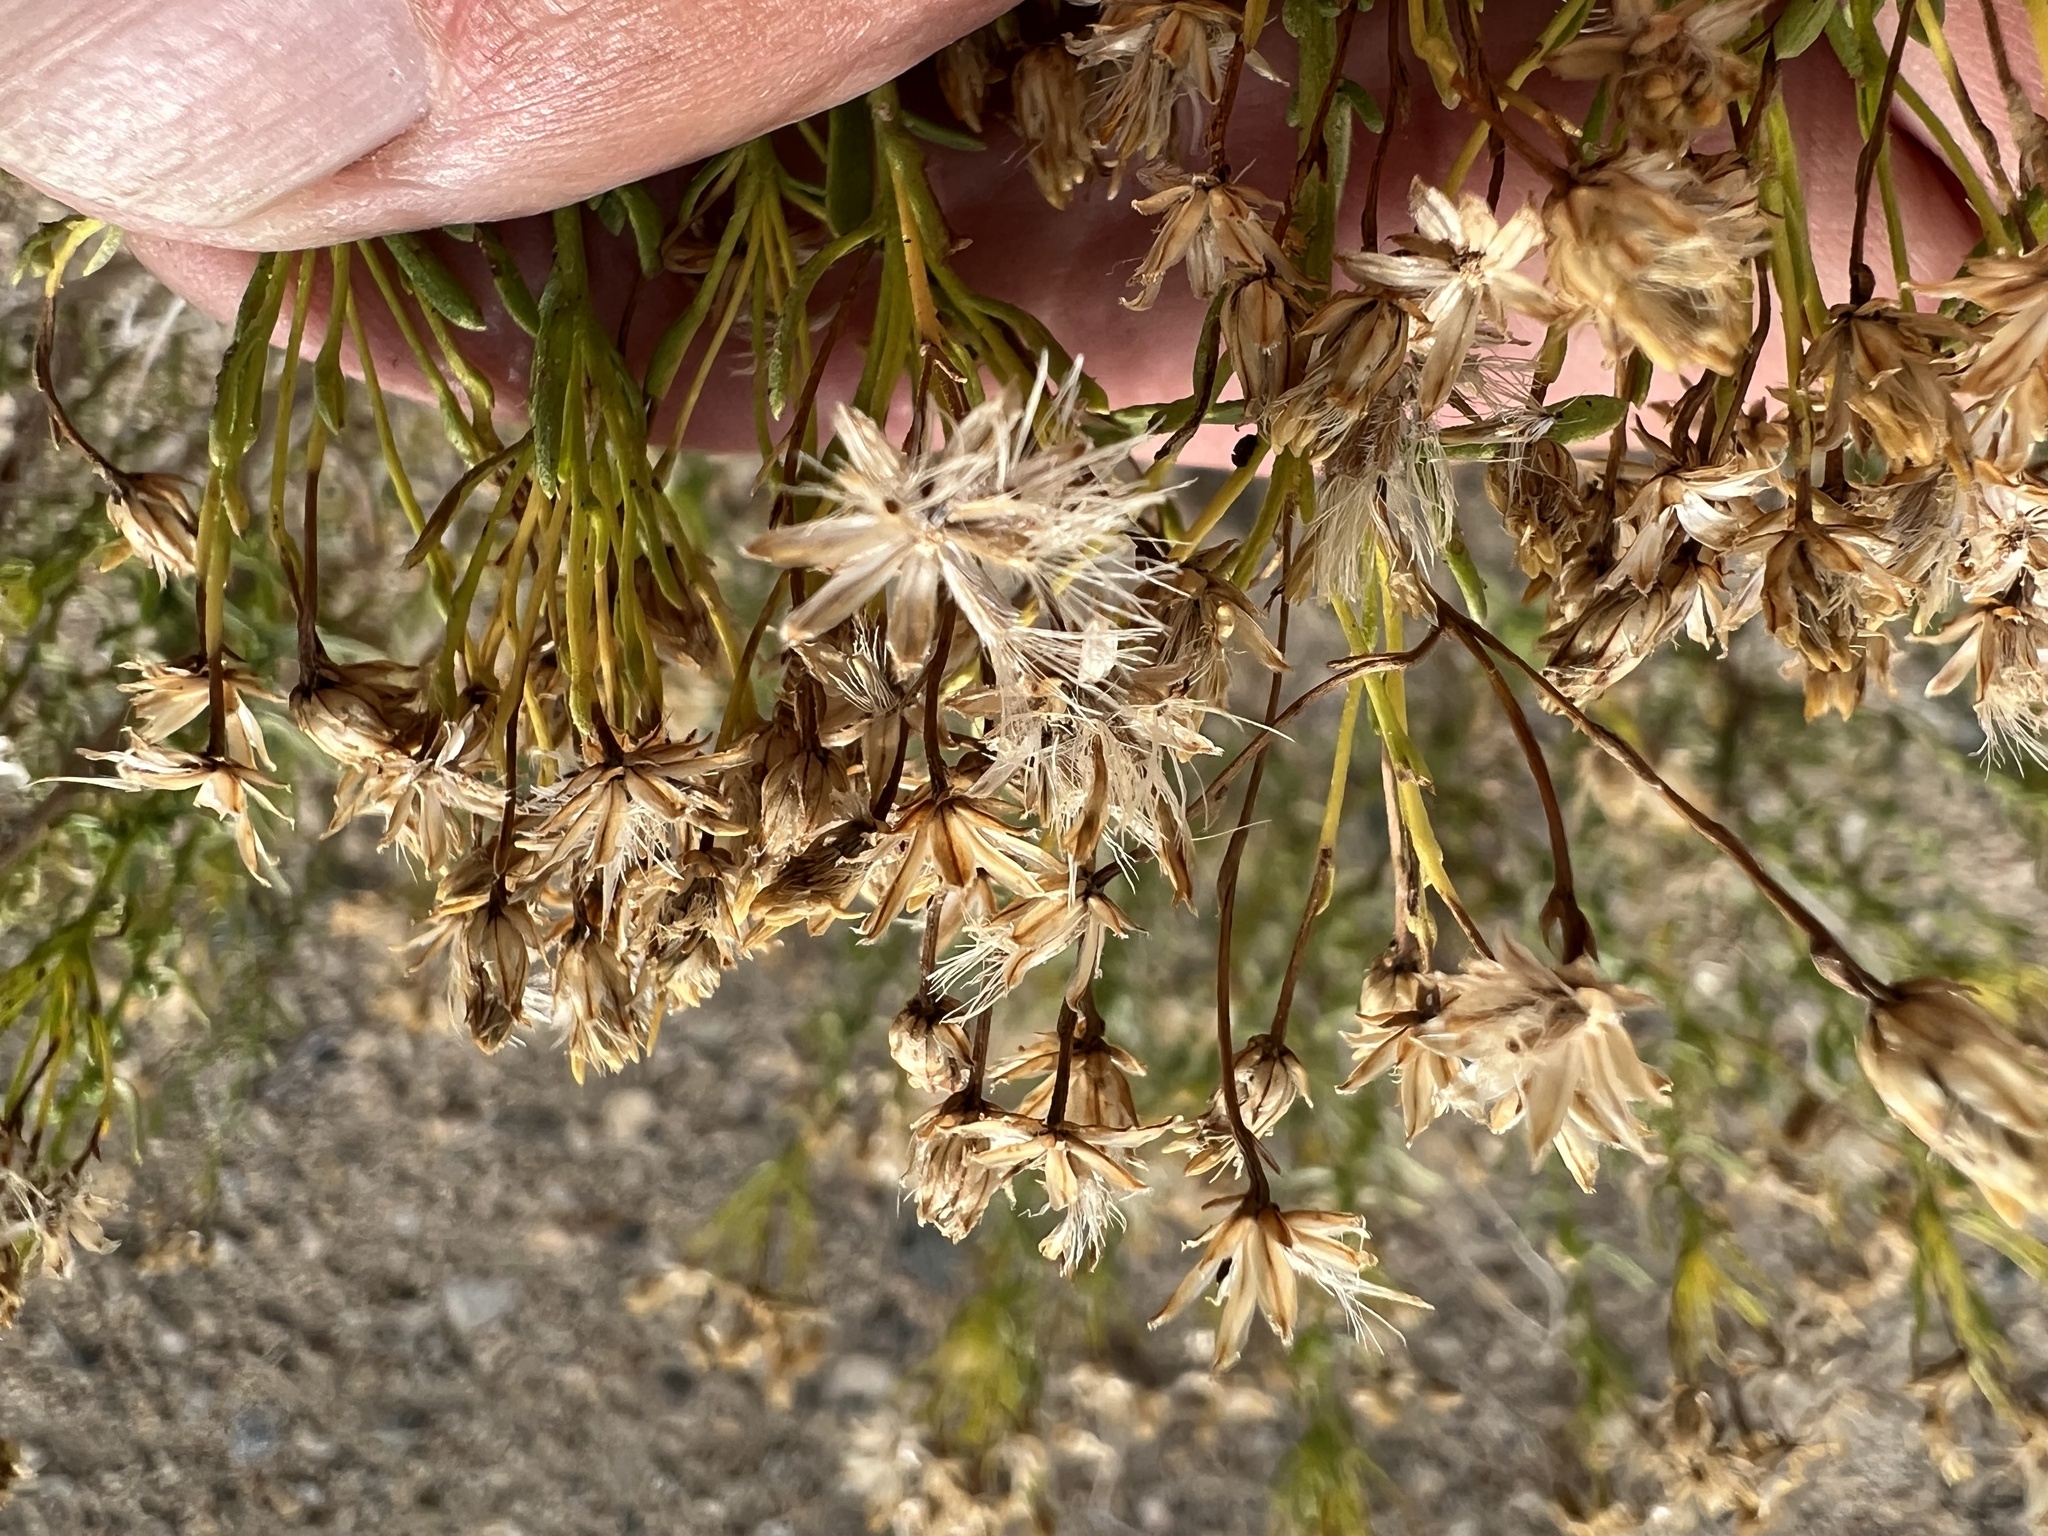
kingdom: Plantae
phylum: Tracheophyta
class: Magnoliopsida
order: Asterales
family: Asteraceae
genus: Ericameria
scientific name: Ericameria cooperi
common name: Cooper's goldenbush
